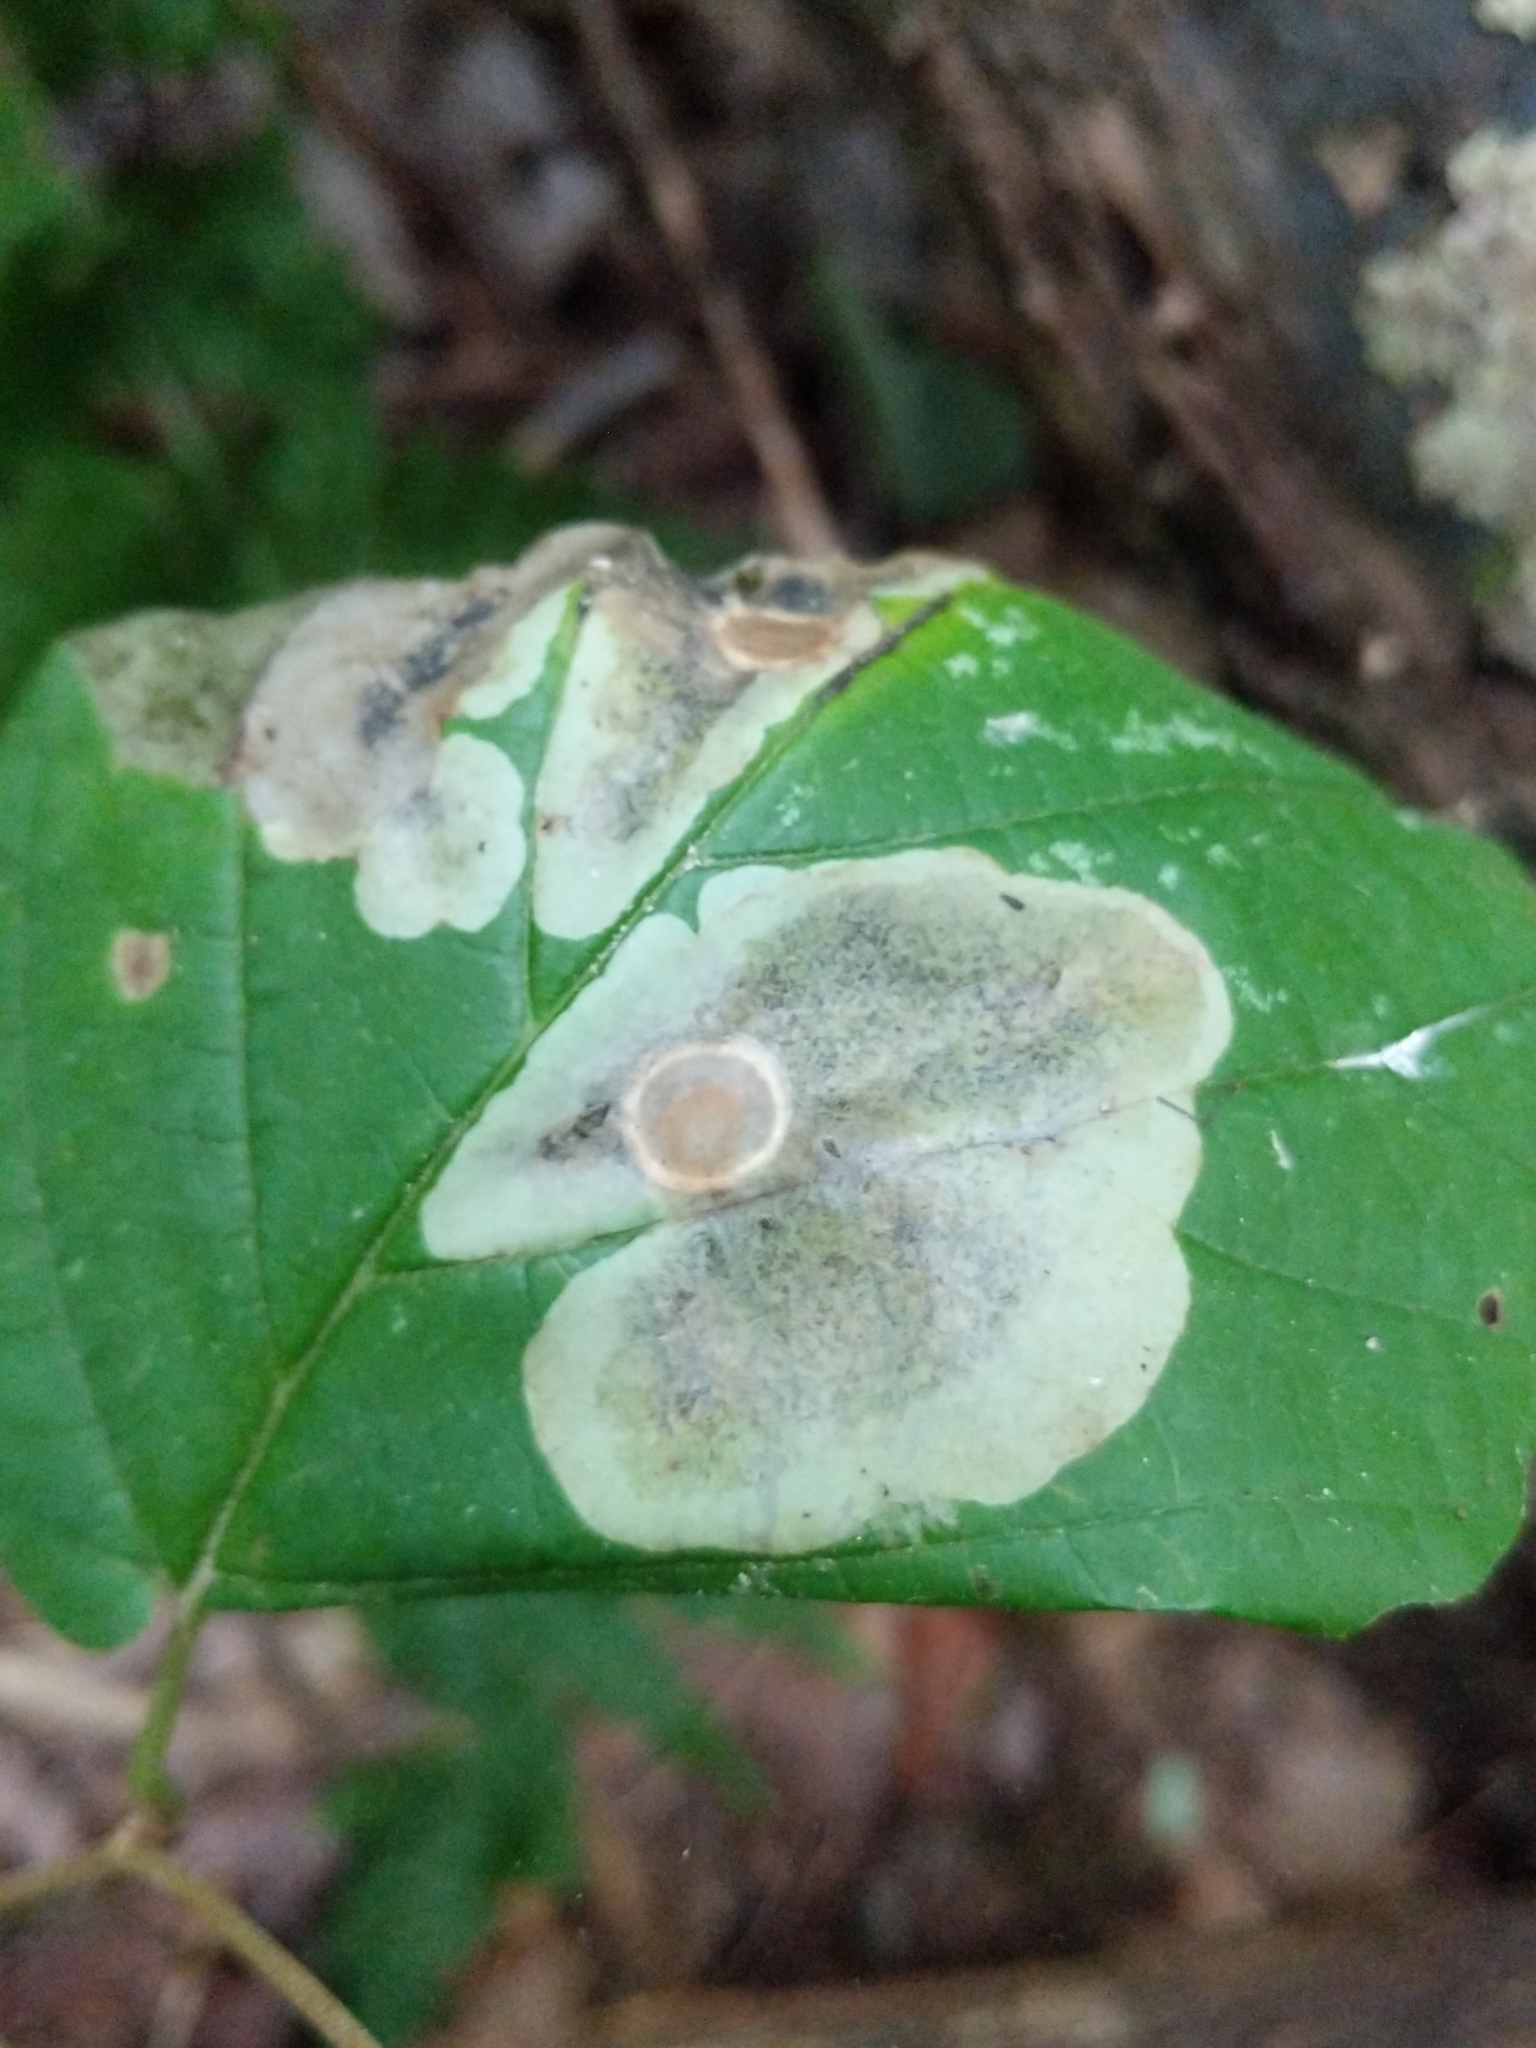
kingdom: Animalia
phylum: Arthropoda
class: Insecta
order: Lepidoptera
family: Gracillariidae
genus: Cameraria
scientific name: Cameraria hamameliella
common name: Witchhazel leafminer
